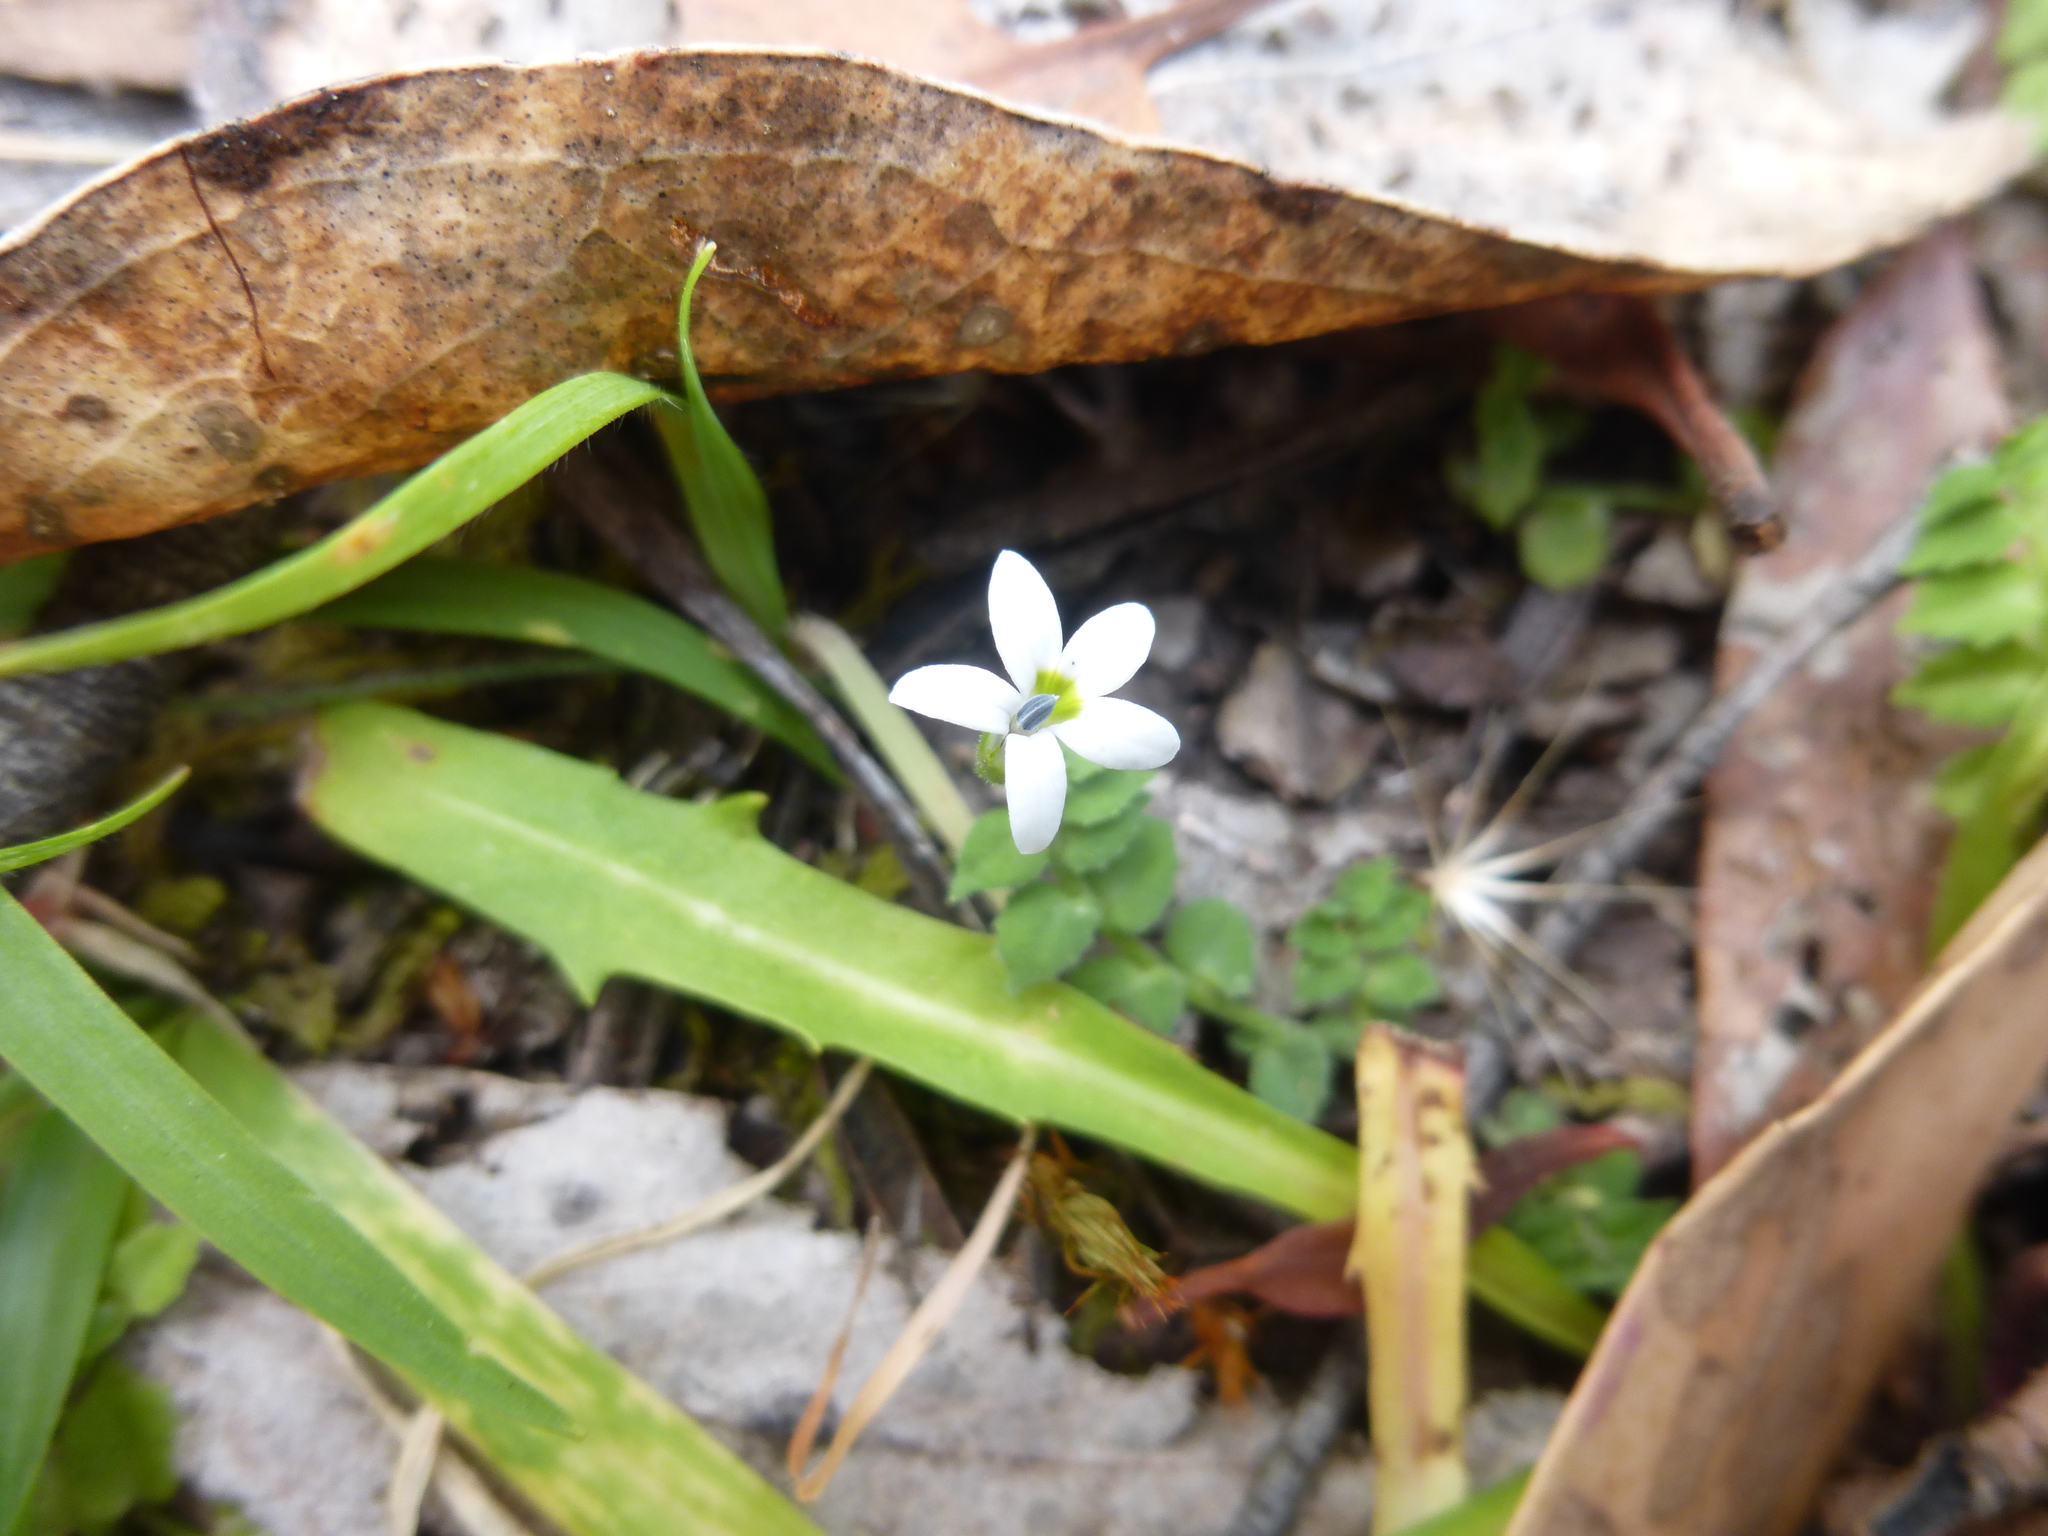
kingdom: Plantae
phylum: Tracheophyta
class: Magnoliopsida
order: Asterales
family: Campanulaceae
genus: Lobelia
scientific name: Lobelia pedunculata
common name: Matted pratia
